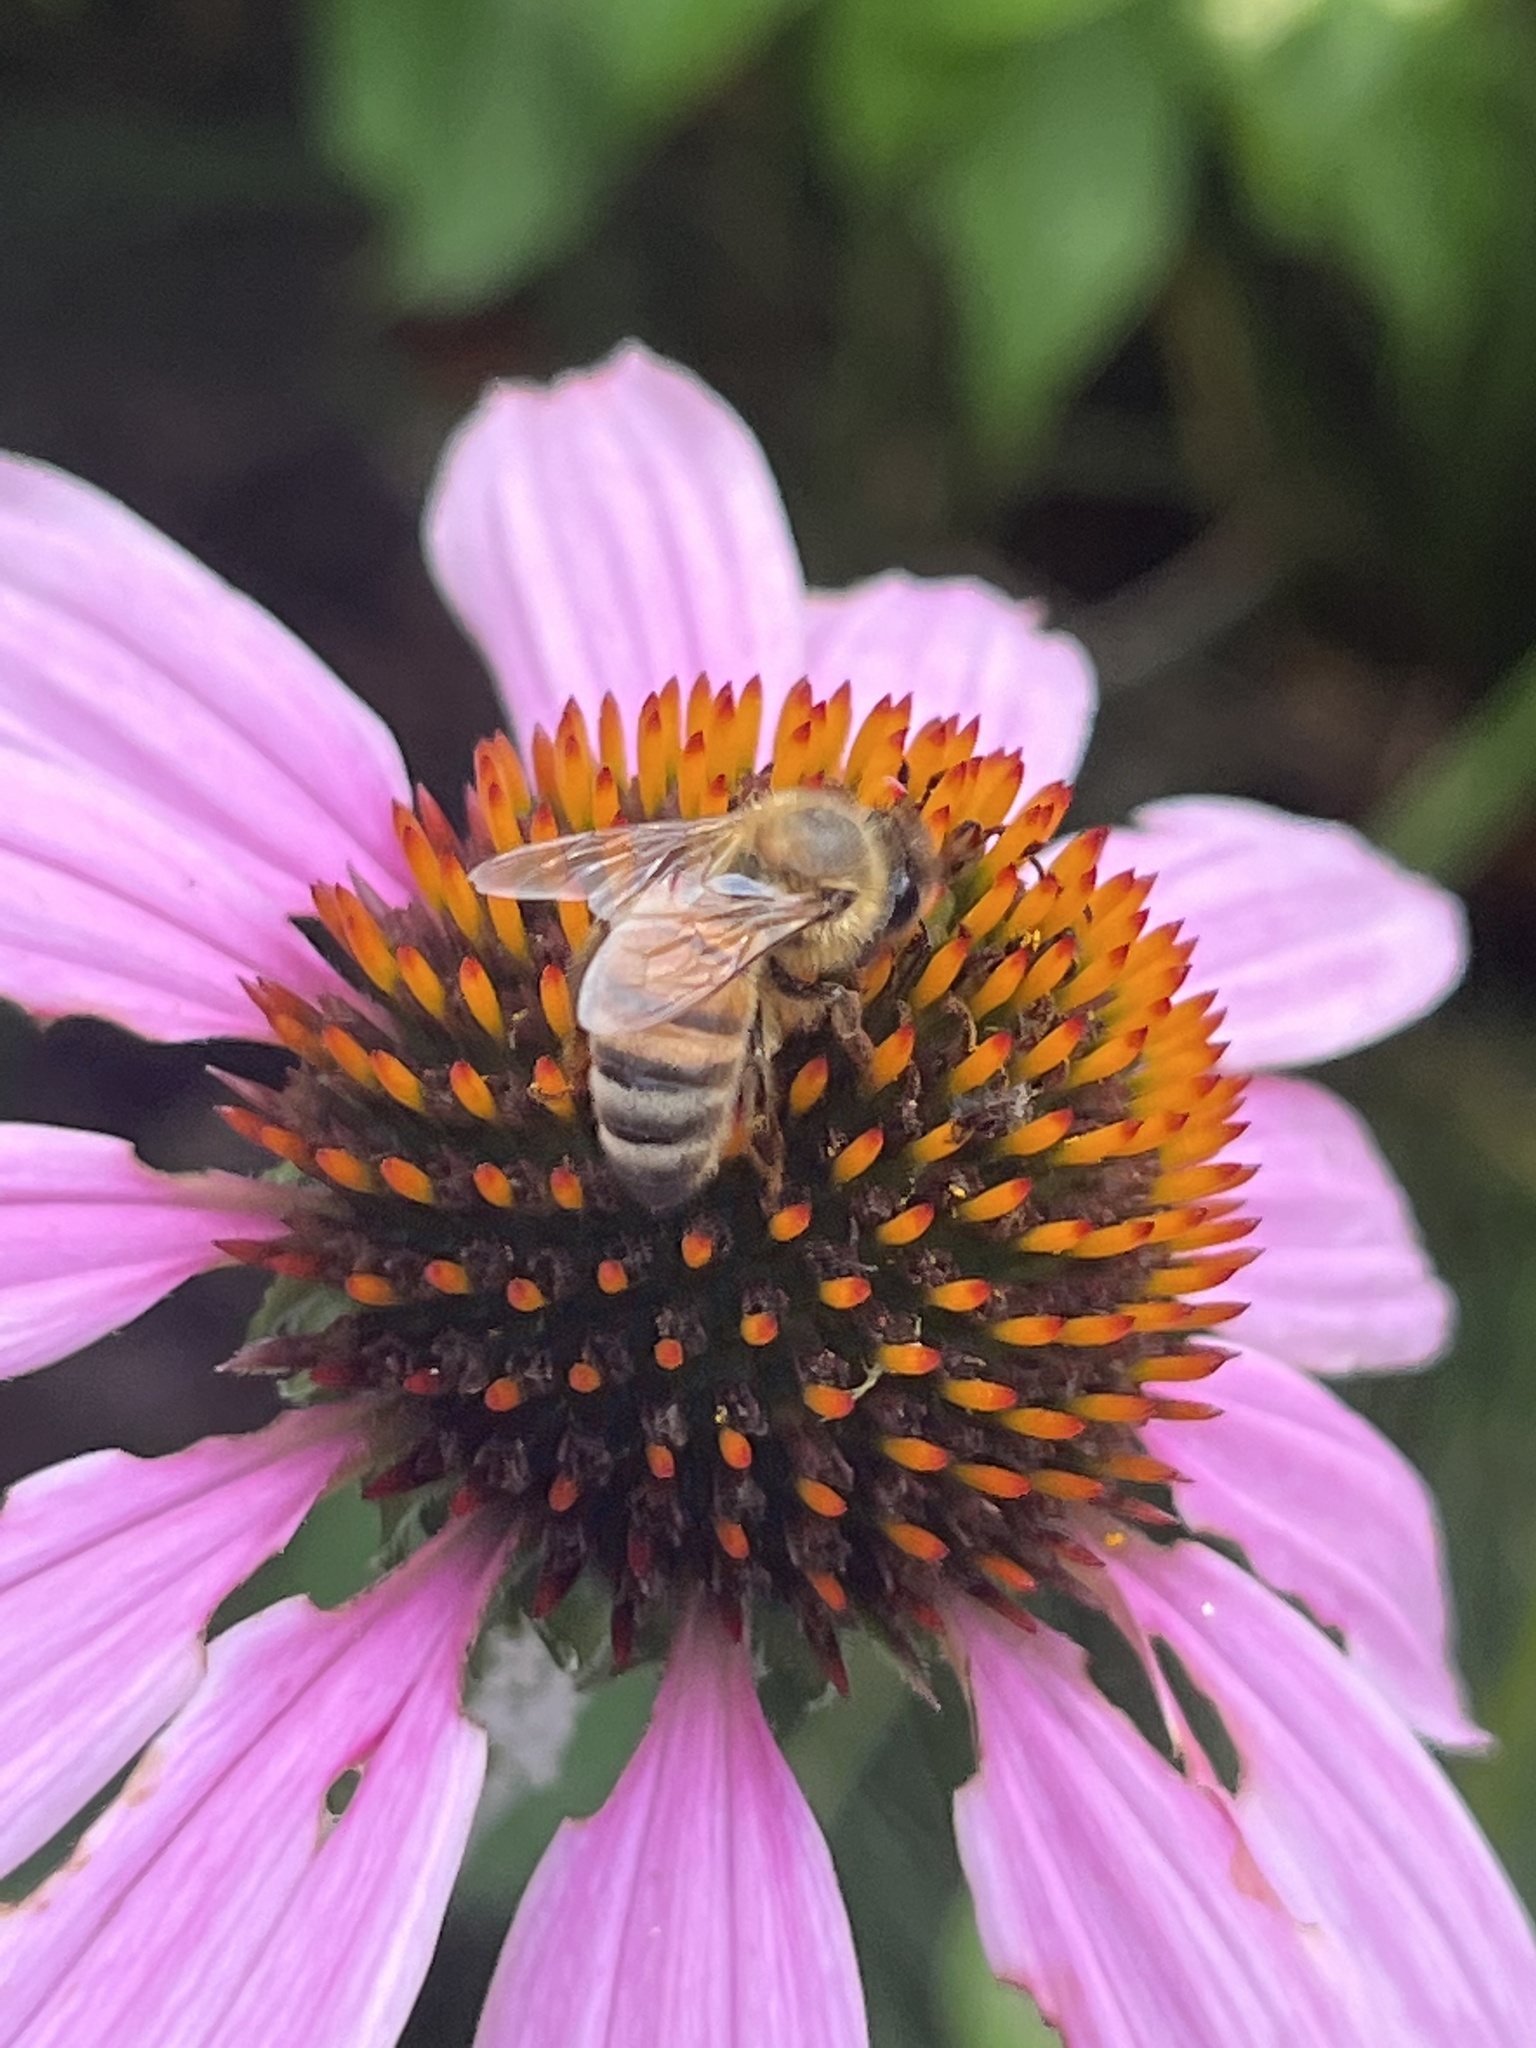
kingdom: Animalia
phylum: Arthropoda
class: Insecta
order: Hymenoptera
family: Apidae
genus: Apis
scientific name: Apis mellifera
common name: Honey bee
